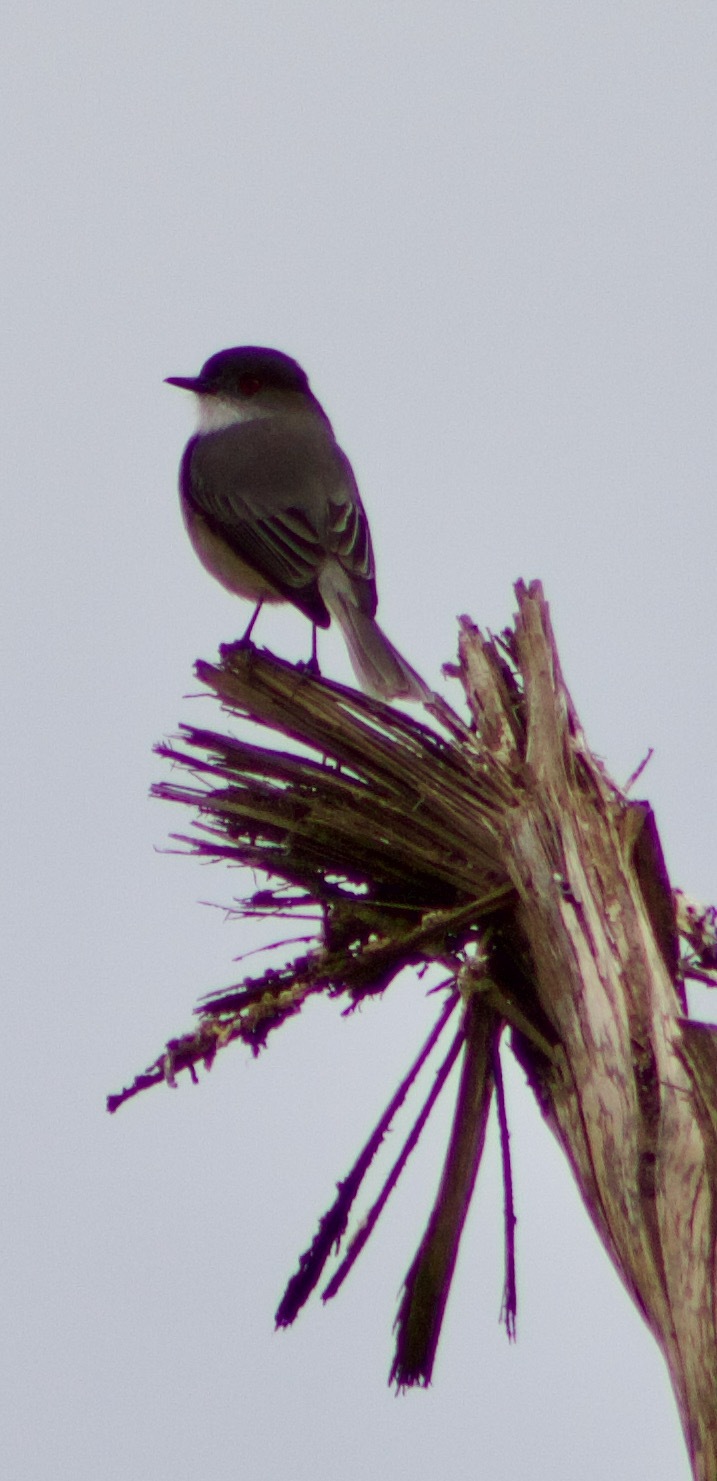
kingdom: Animalia
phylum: Chordata
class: Aves
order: Passeriformes
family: Tyrannidae
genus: Xolmis
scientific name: Xolmis pyrope
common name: Fire-eyed diucon
